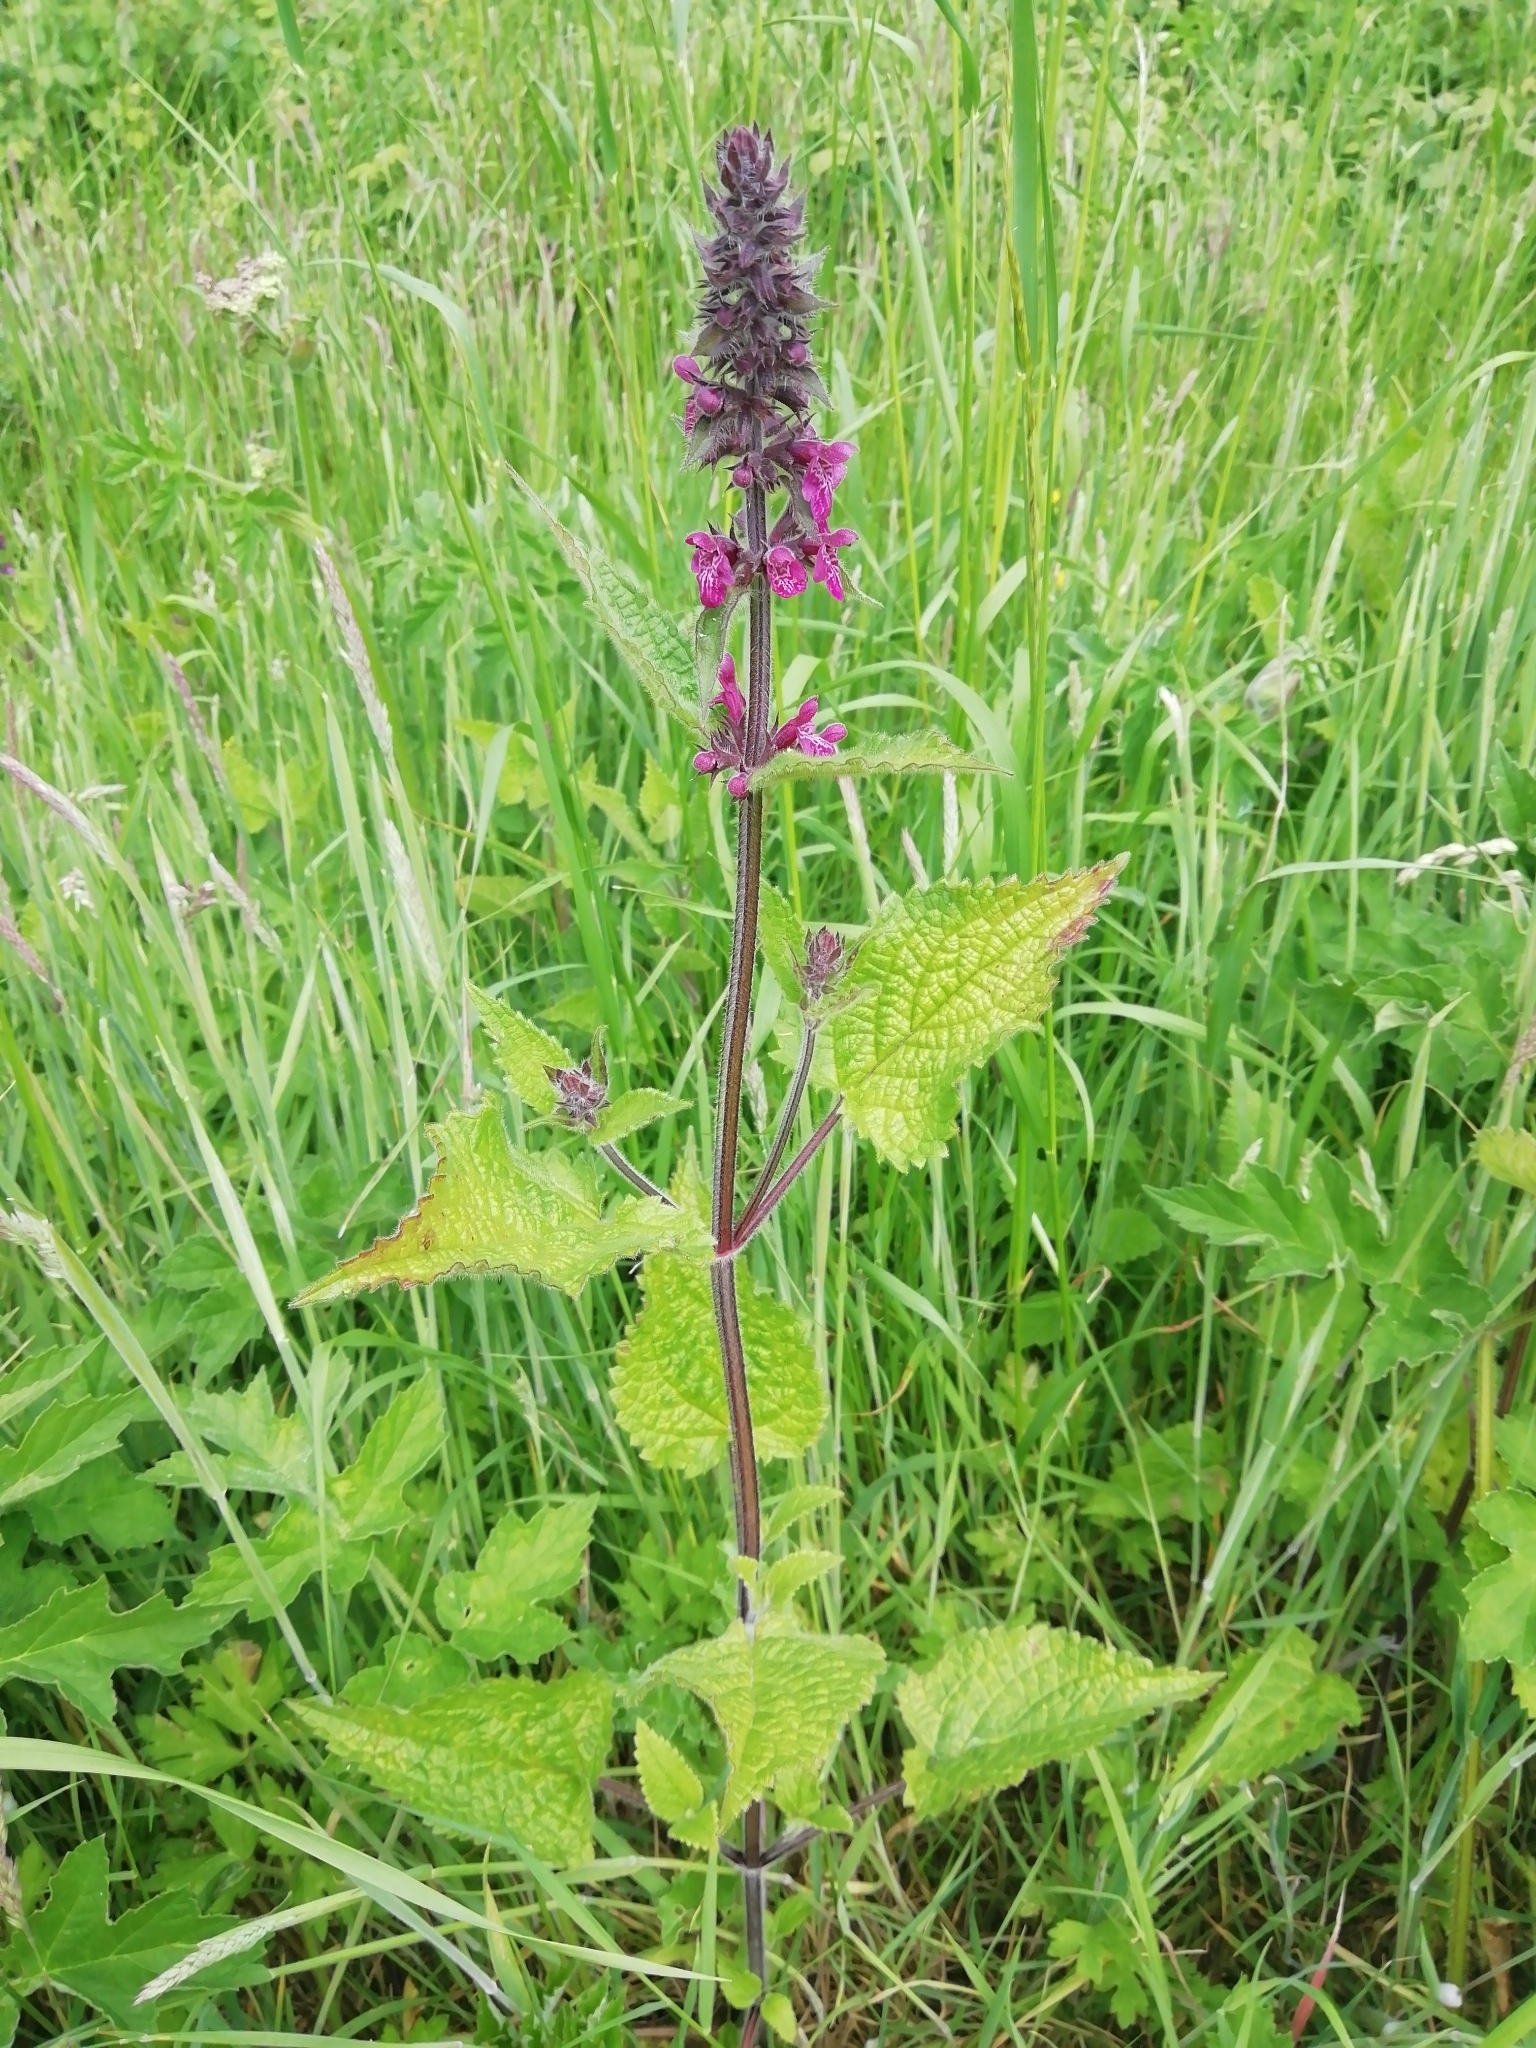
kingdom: Plantae
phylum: Tracheophyta
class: Magnoliopsida
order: Lamiales
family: Lamiaceae
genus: Stachys
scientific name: Stachys sylvatica
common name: Hedge woundwort
